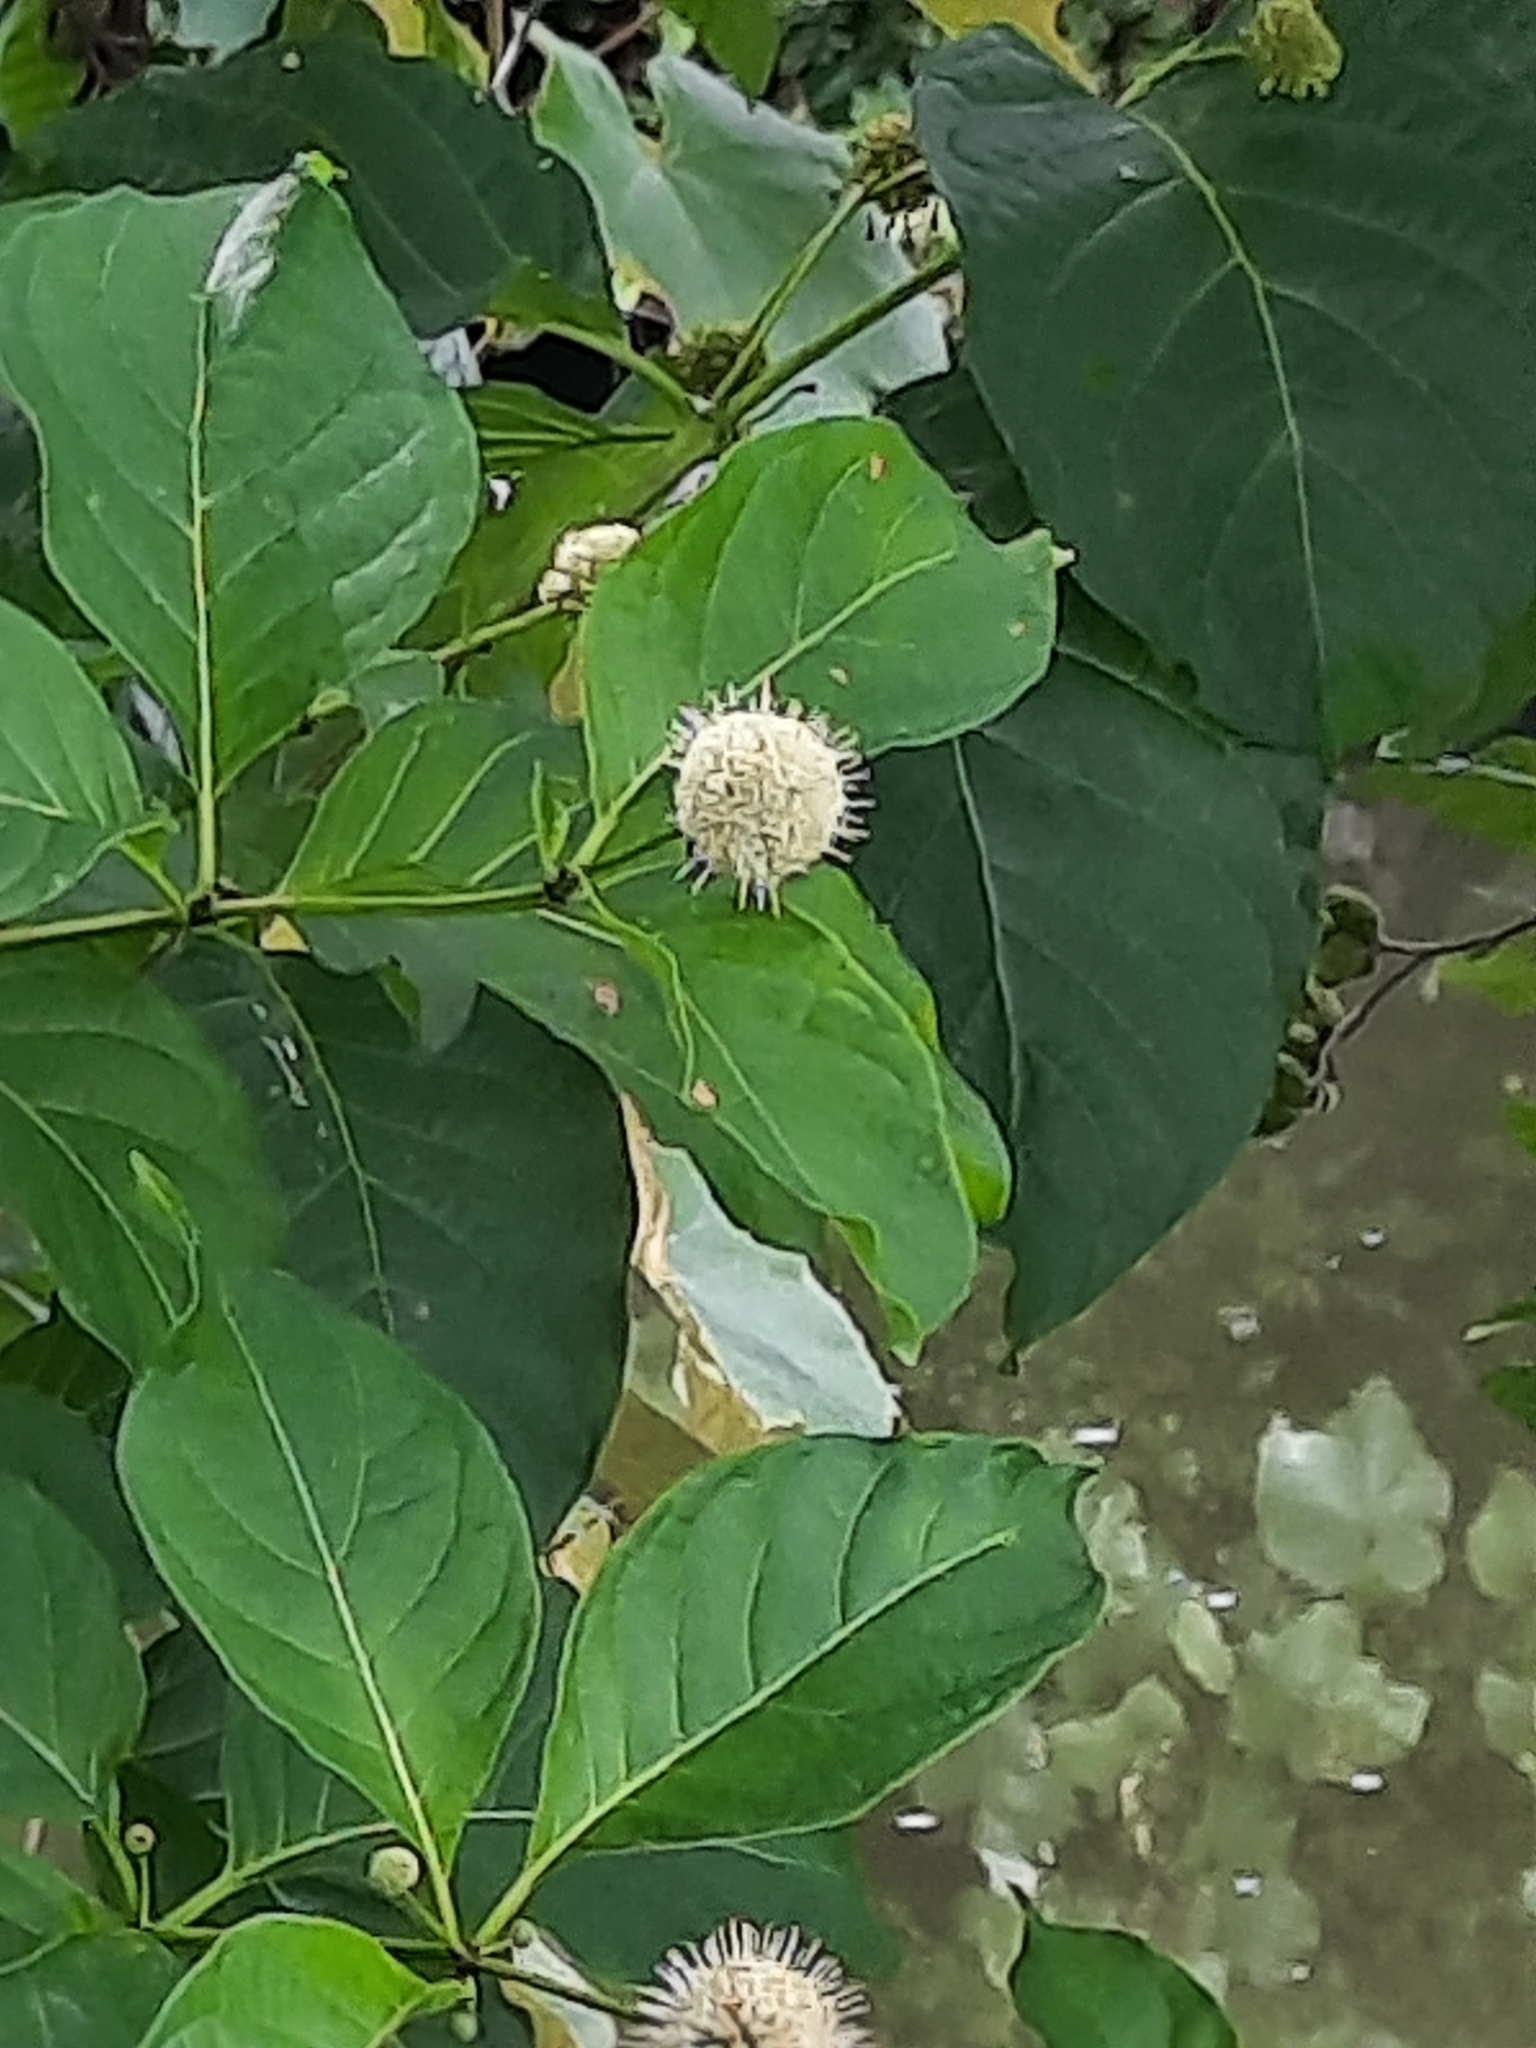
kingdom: Plantae
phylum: Tracheophyta
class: Magnoliopsida
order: Gentianales
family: Rubiaceae
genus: Cephalanthus
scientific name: Cephalanthus occidentalis
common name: Button-willow
